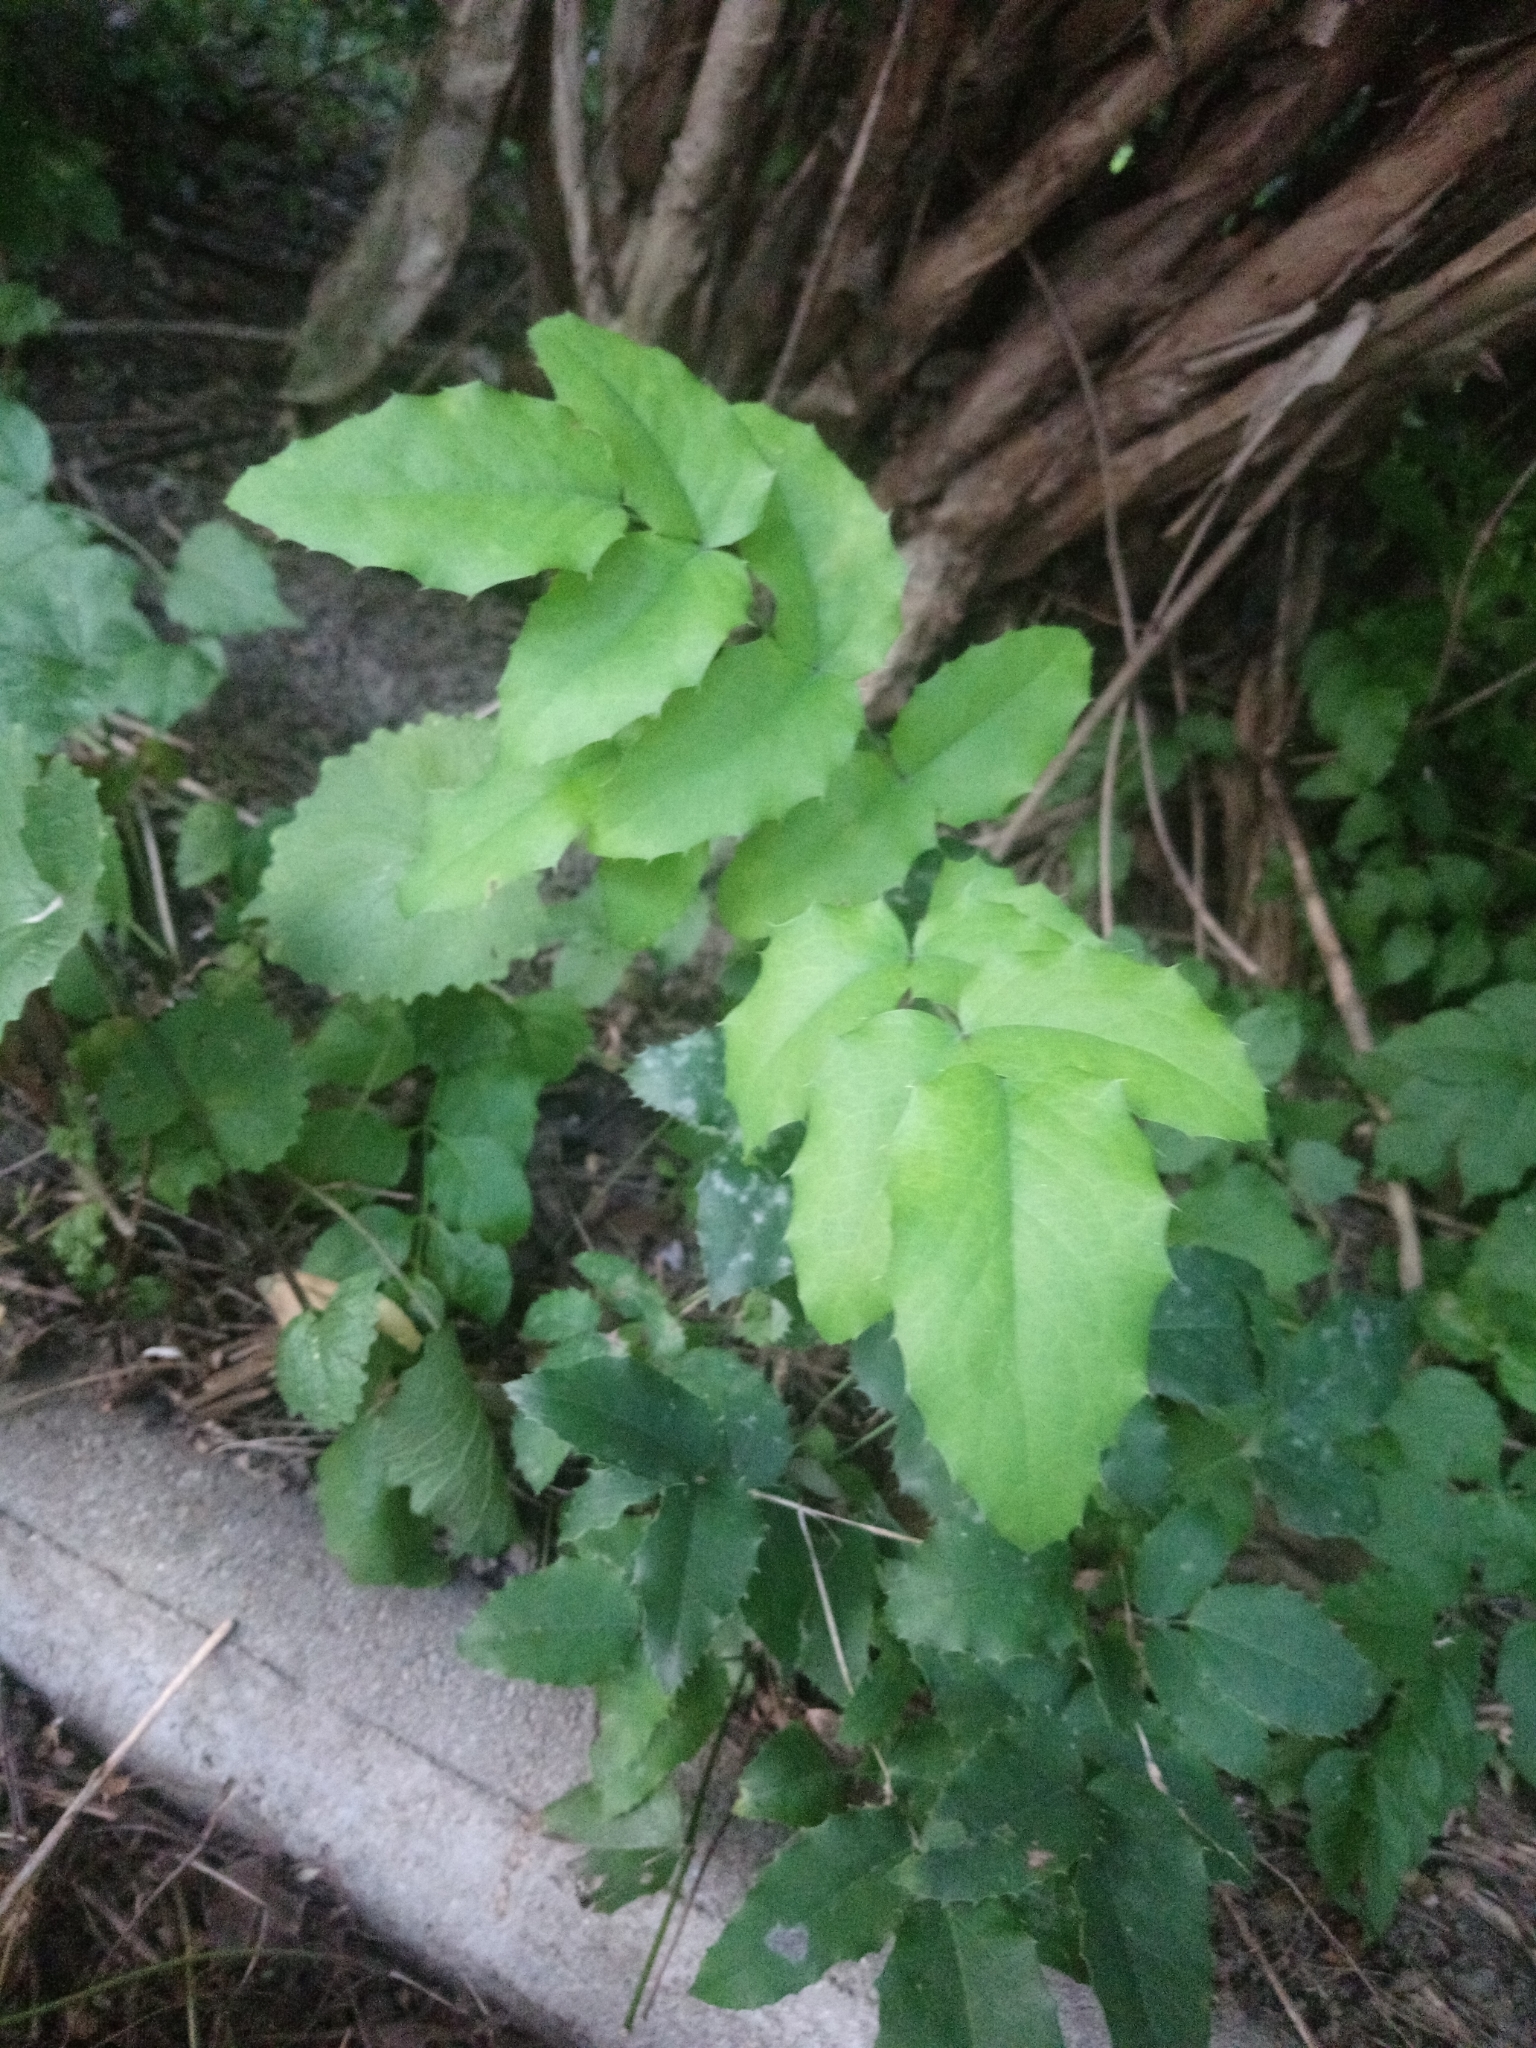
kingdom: Plantae
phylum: Tracheophyta
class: Magnoliopsida
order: Ranunculales
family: Berberidaceae
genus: Mahonia
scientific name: Mahonia aquifolium
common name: Oregon-grape
